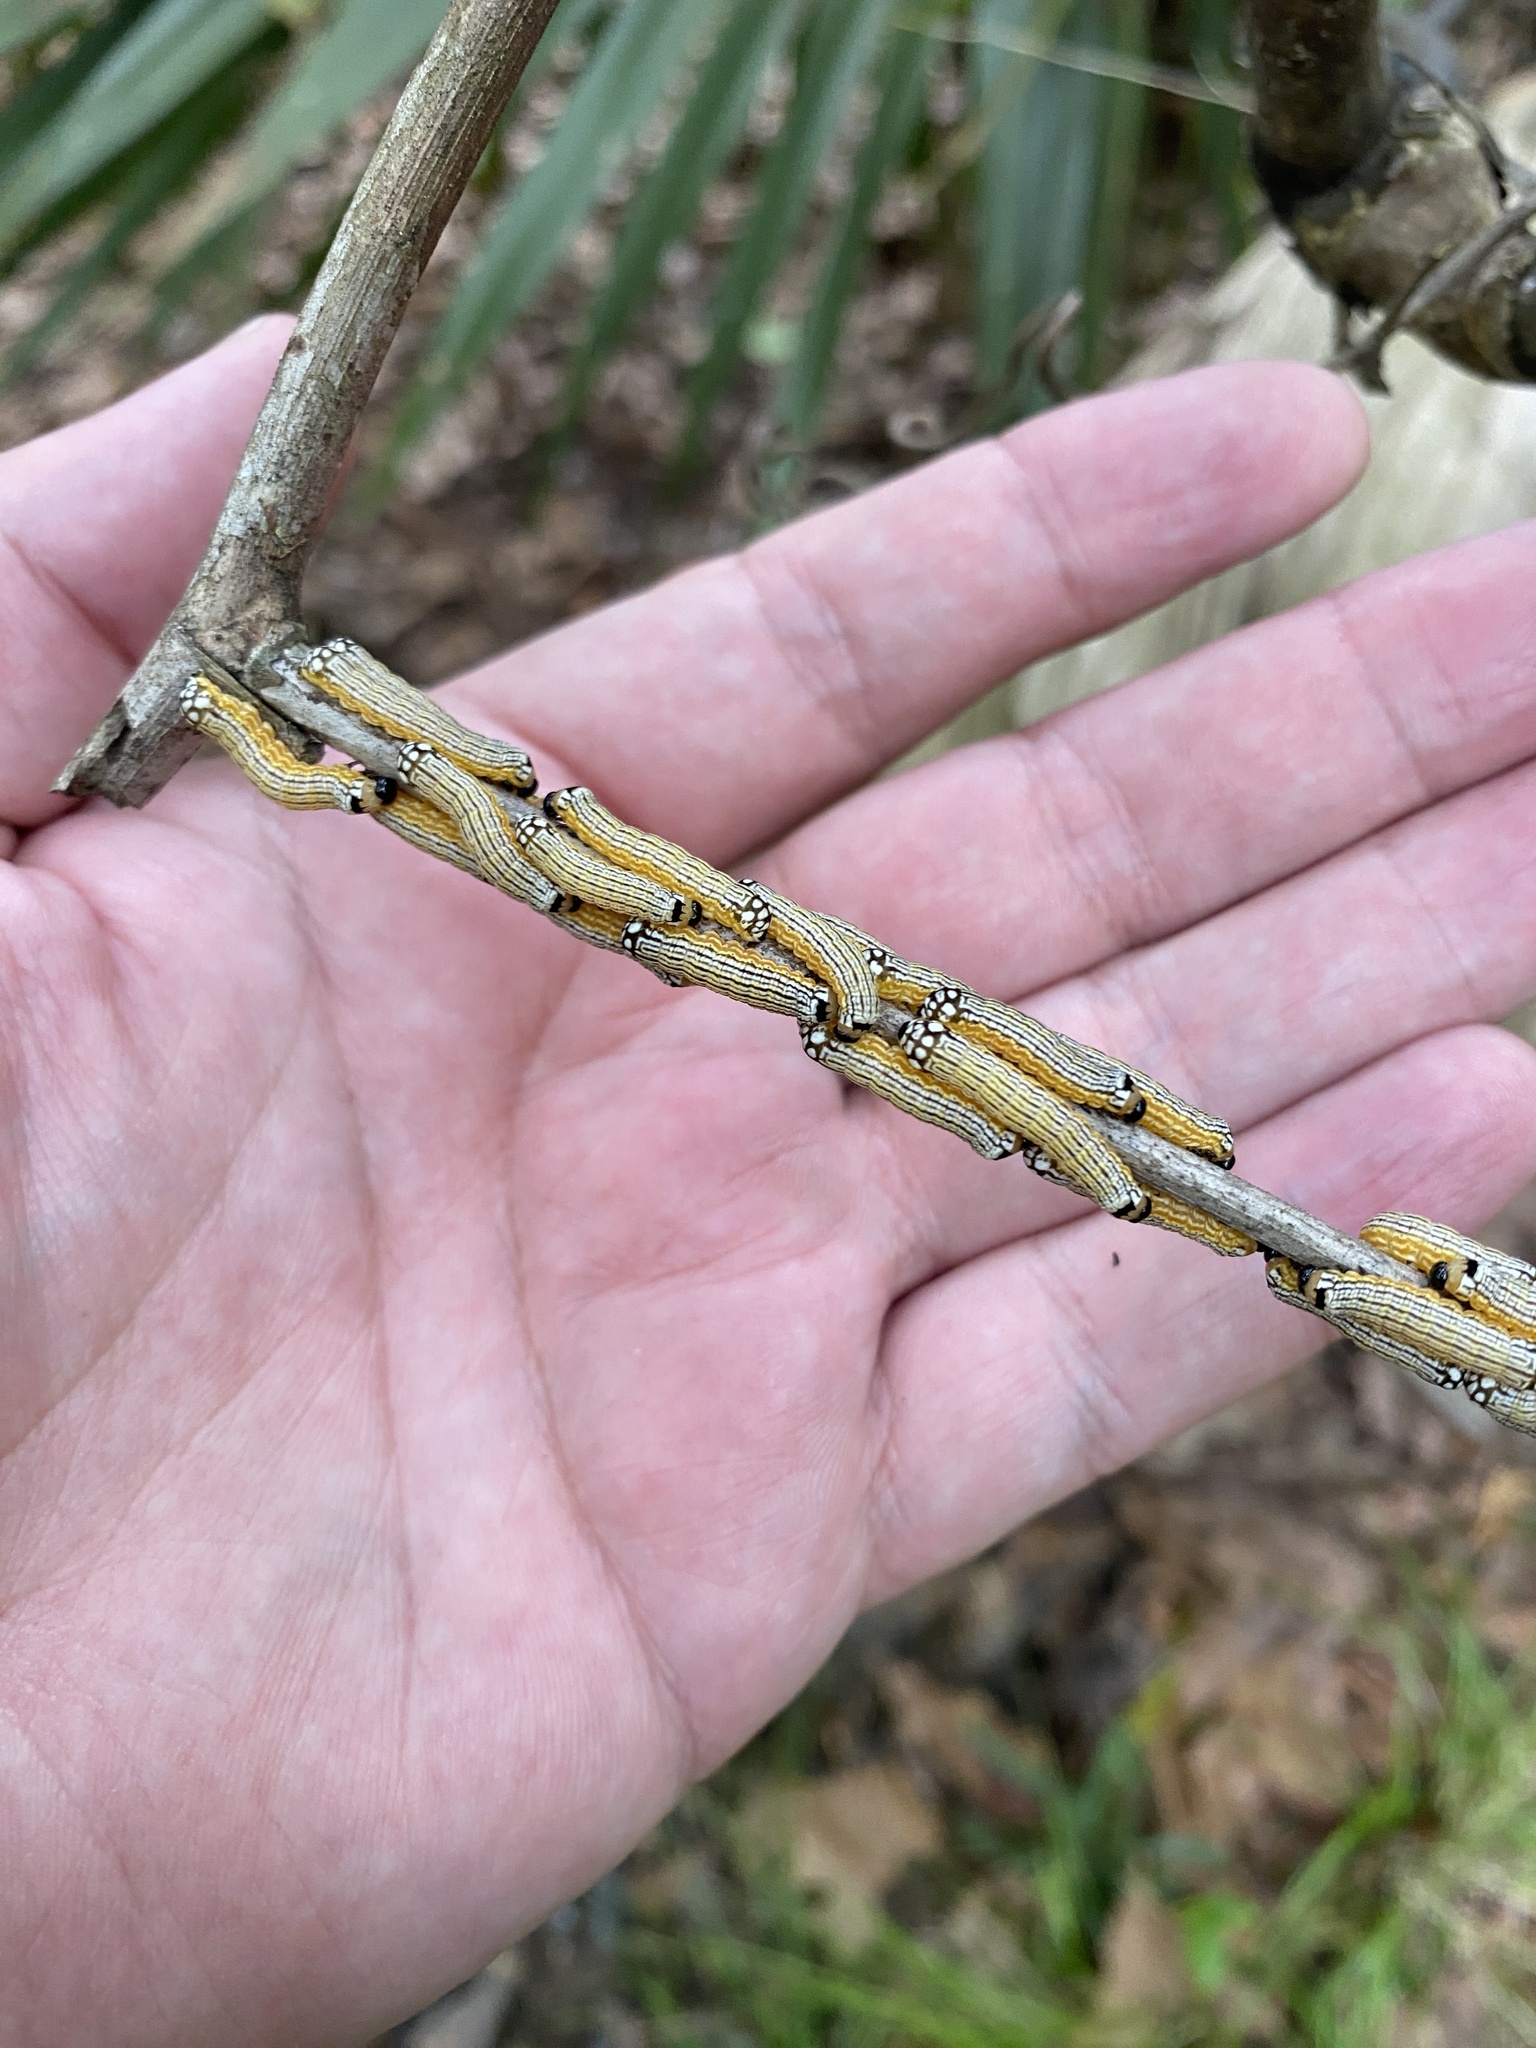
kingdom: Animalia
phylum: Arthropoda
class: Insecta
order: Lepidoptera
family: Noctuidae
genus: Phosphila
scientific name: Phosphila turbulenta
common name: Turbulent phosphila moth
